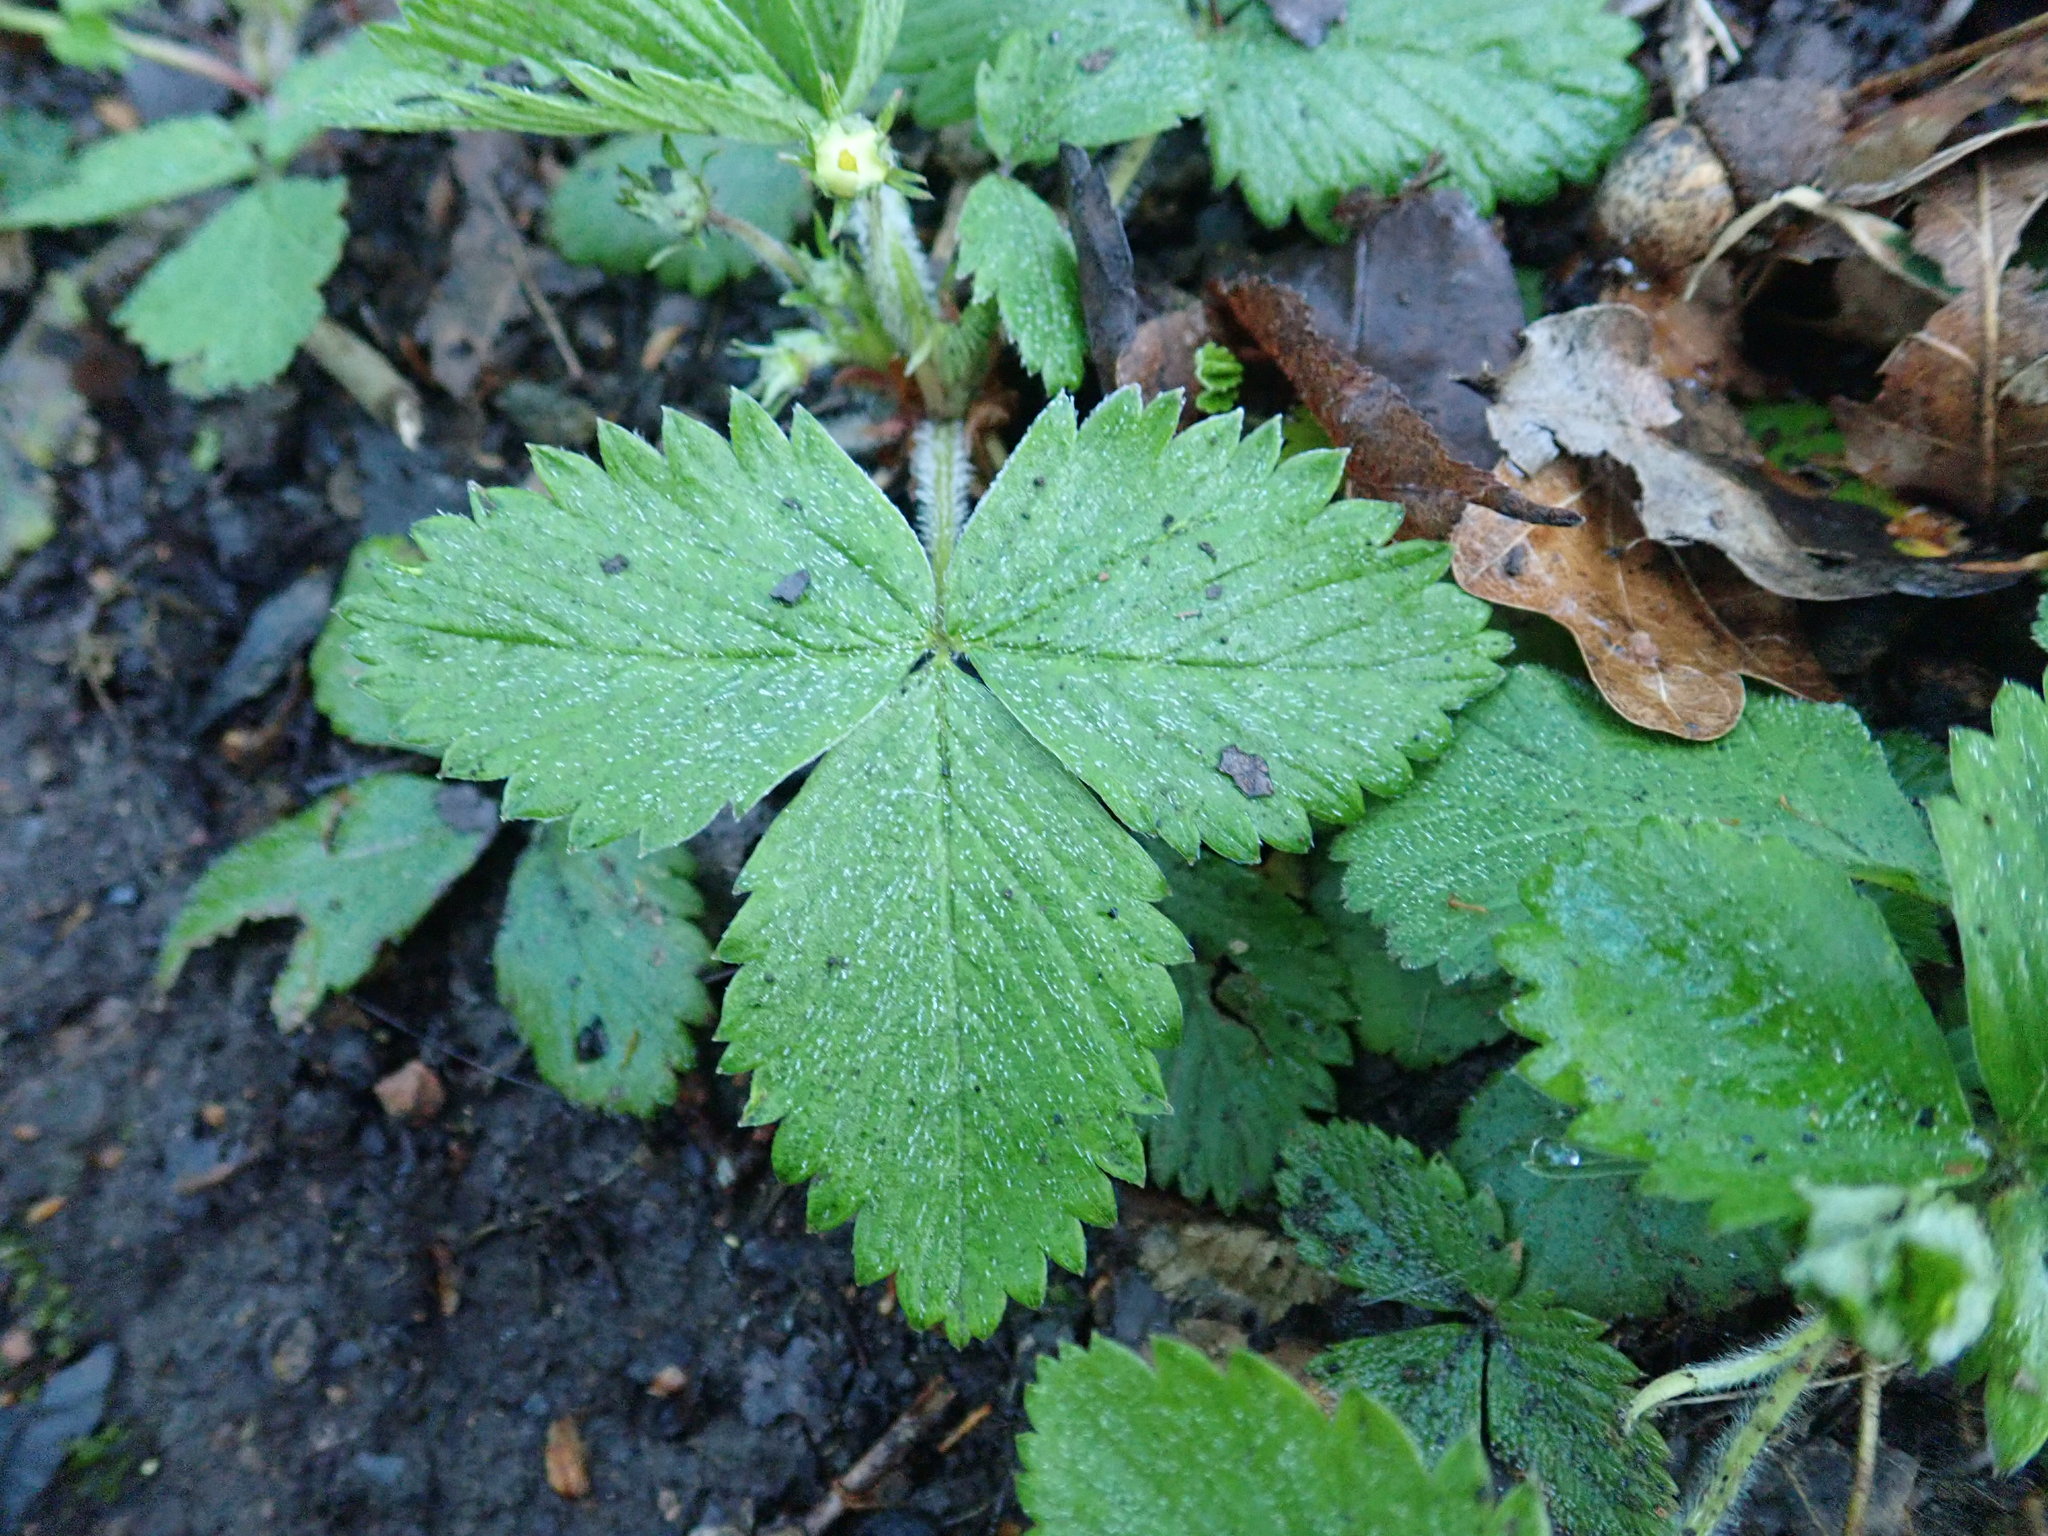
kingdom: Plantae
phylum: Tracheophyta
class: Magnoliopsida
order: Rosales
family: Rosaceae
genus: Fragaria
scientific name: Fragaria vesca
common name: Wild strawberry
